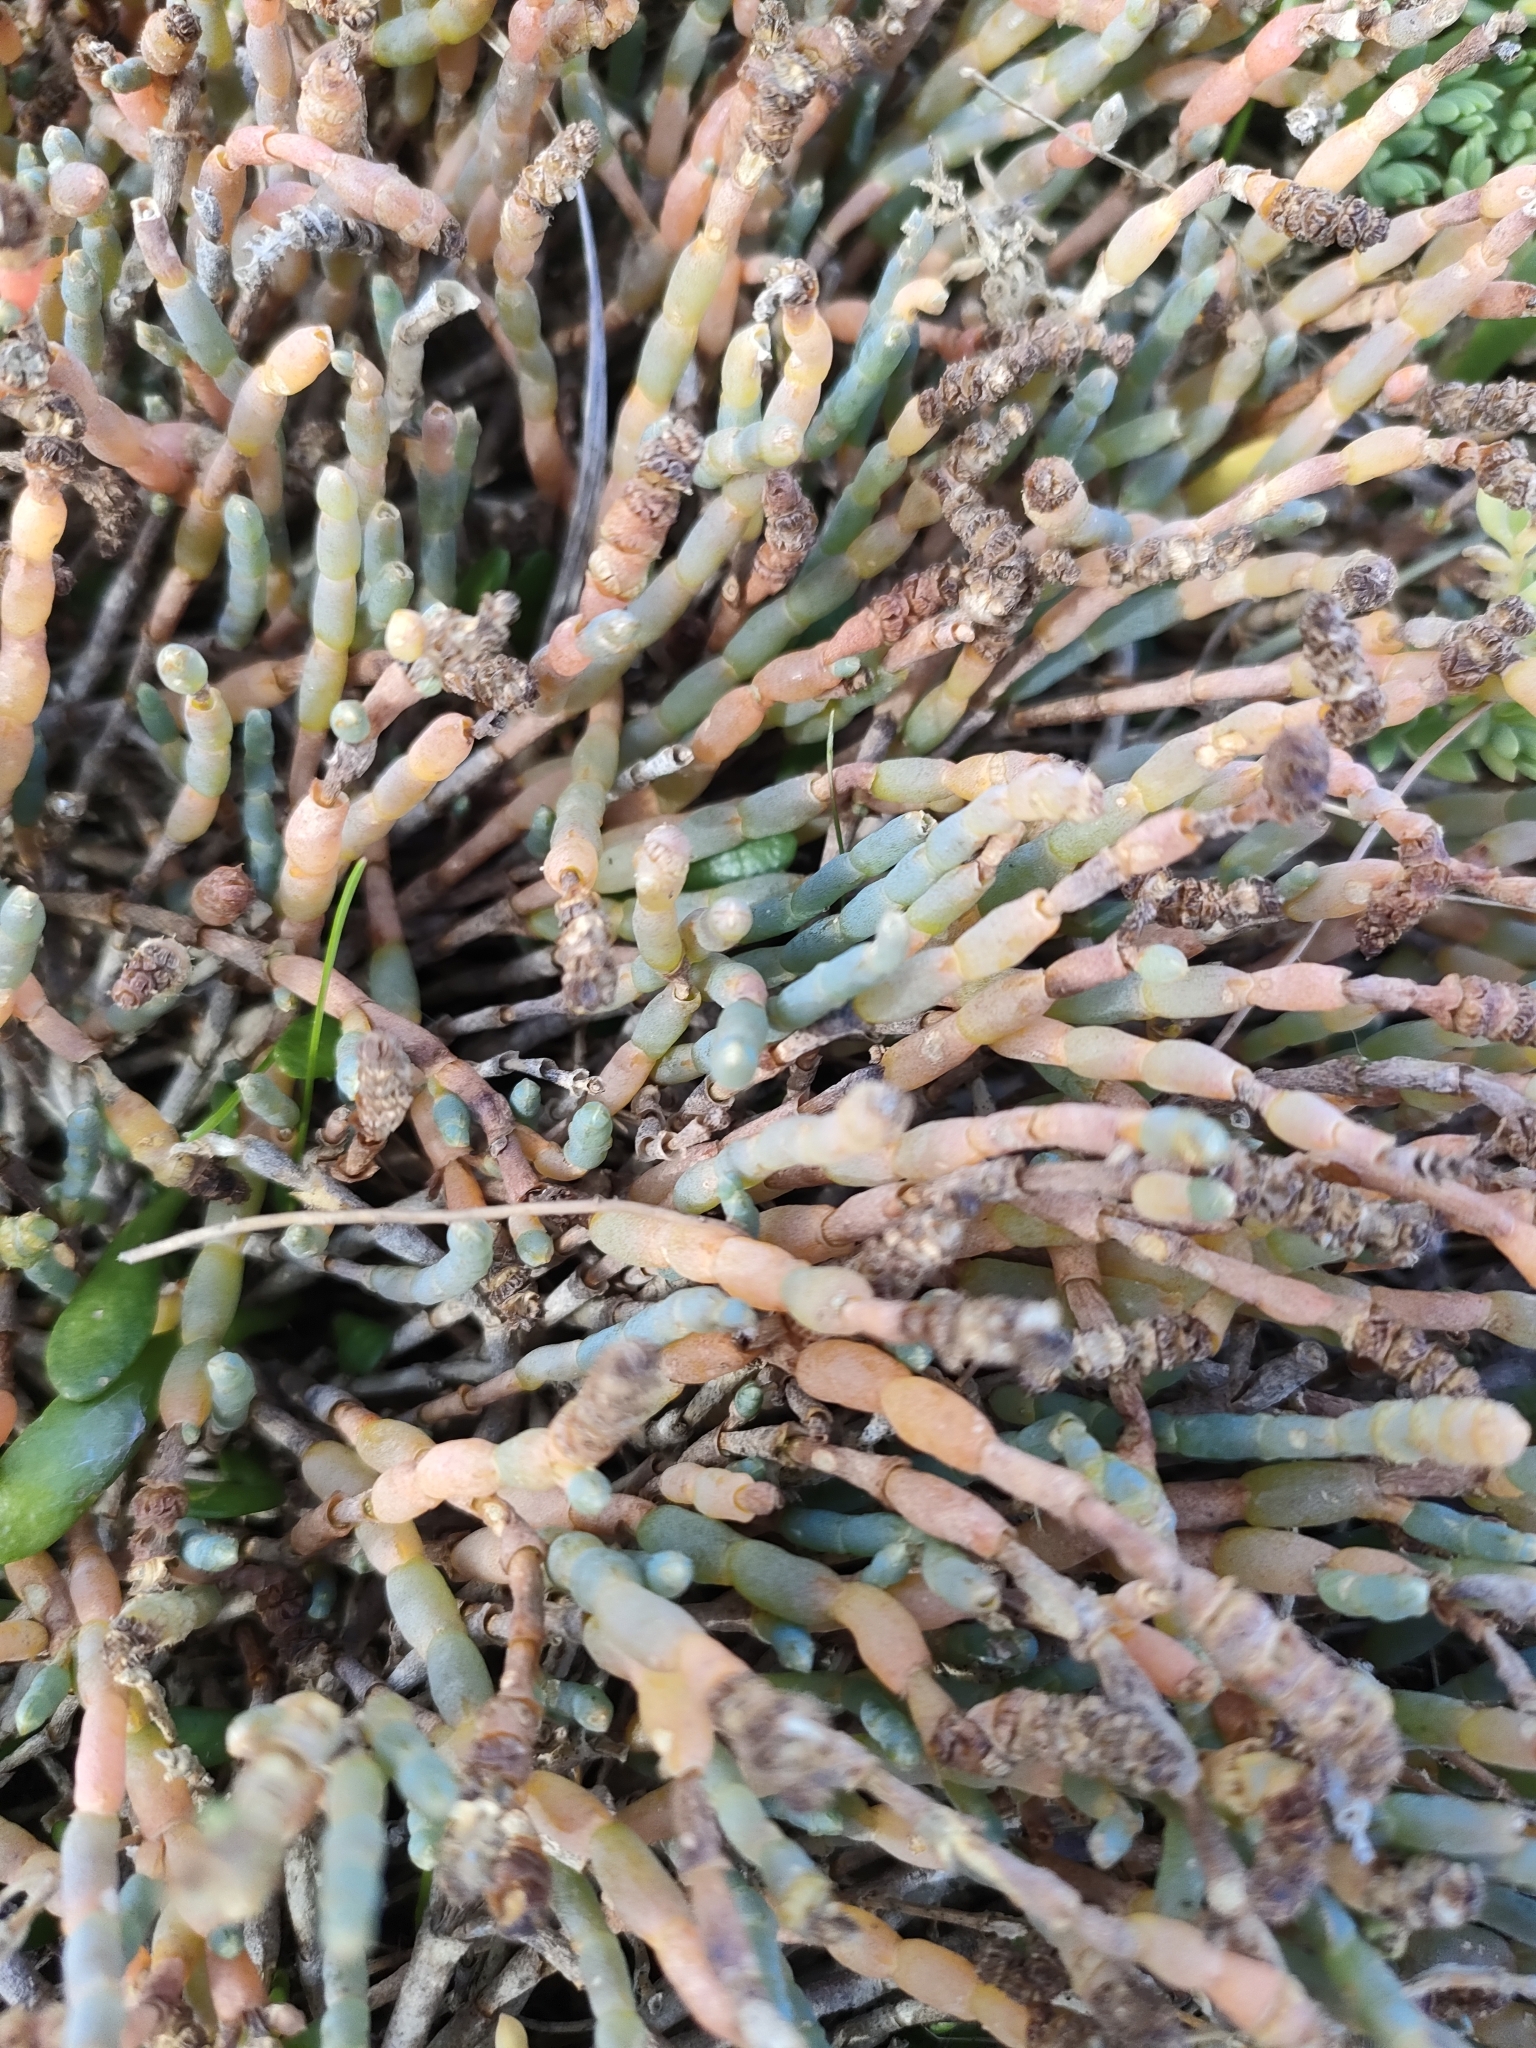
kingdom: Plantae
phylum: Tracheophyta
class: Magnoliopsida
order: Caryophyllales
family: Amaranthaceae
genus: Salicornia
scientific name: Salicornia quinqueflora
